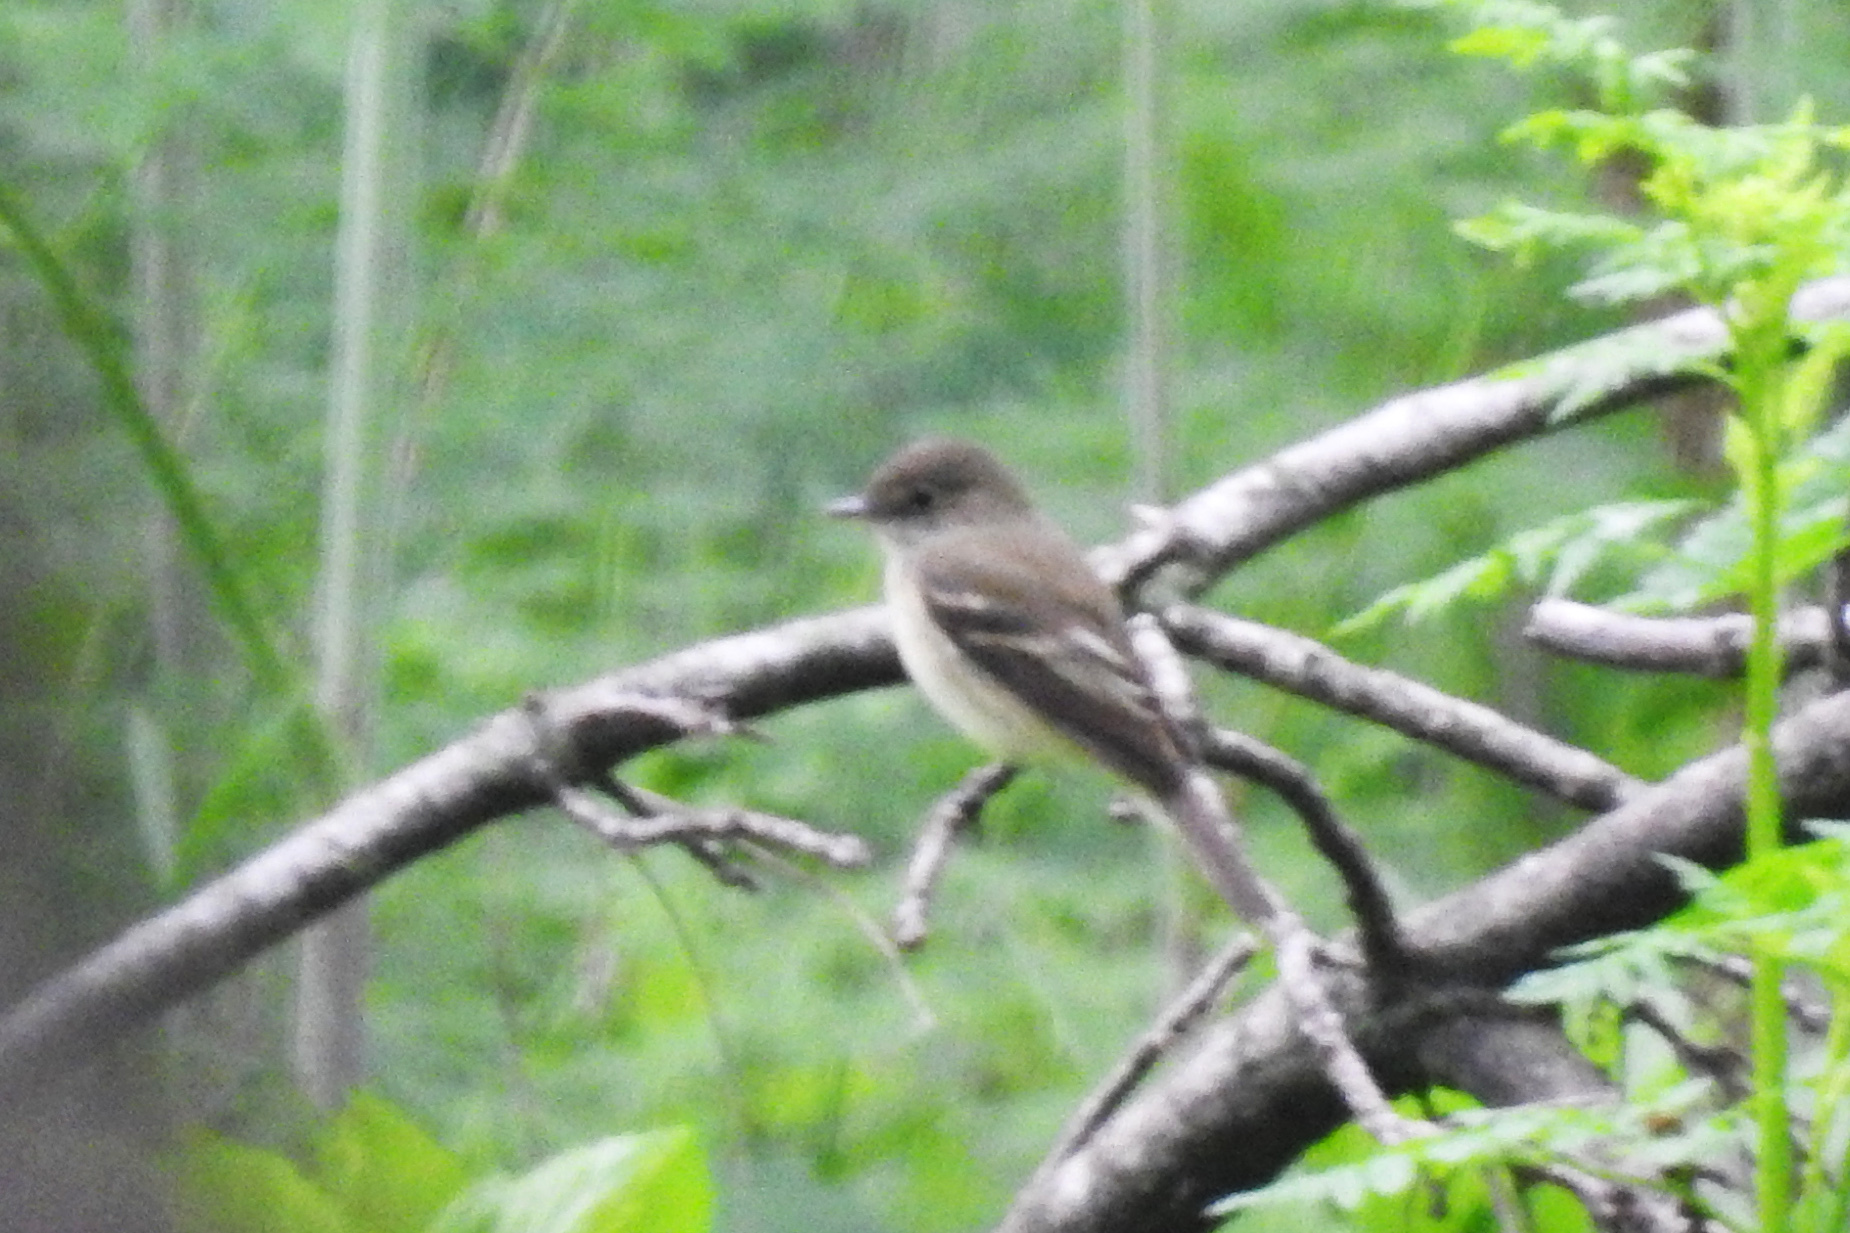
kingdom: Animalia
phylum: Chordata
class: Aves
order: Passeriformes
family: Tyrannidae
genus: Sayornis
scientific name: Sayornis phoebe
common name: Eastern phoebe
